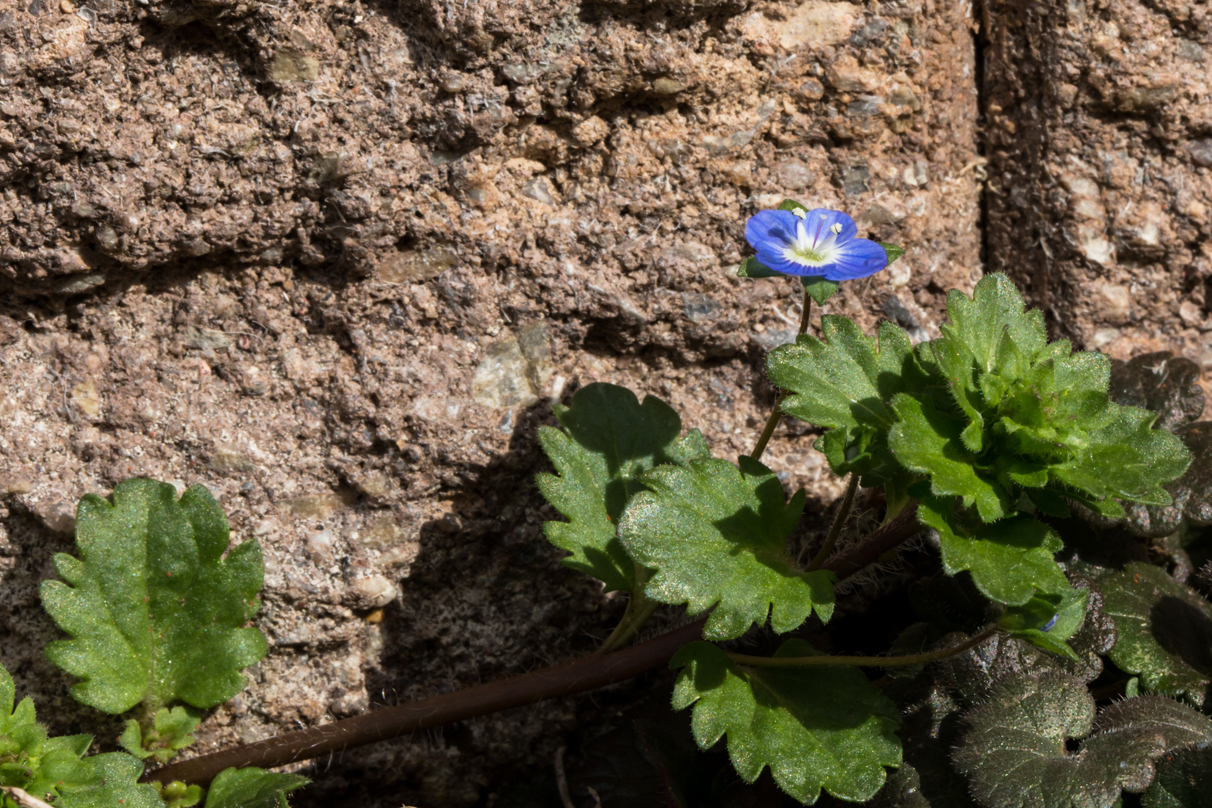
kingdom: Plantae
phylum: Tracheophyta
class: Magnoliopsida
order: Lamiales
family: Plantaginaceae
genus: Veronica
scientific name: Veronica persica
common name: Common field-speedwell
